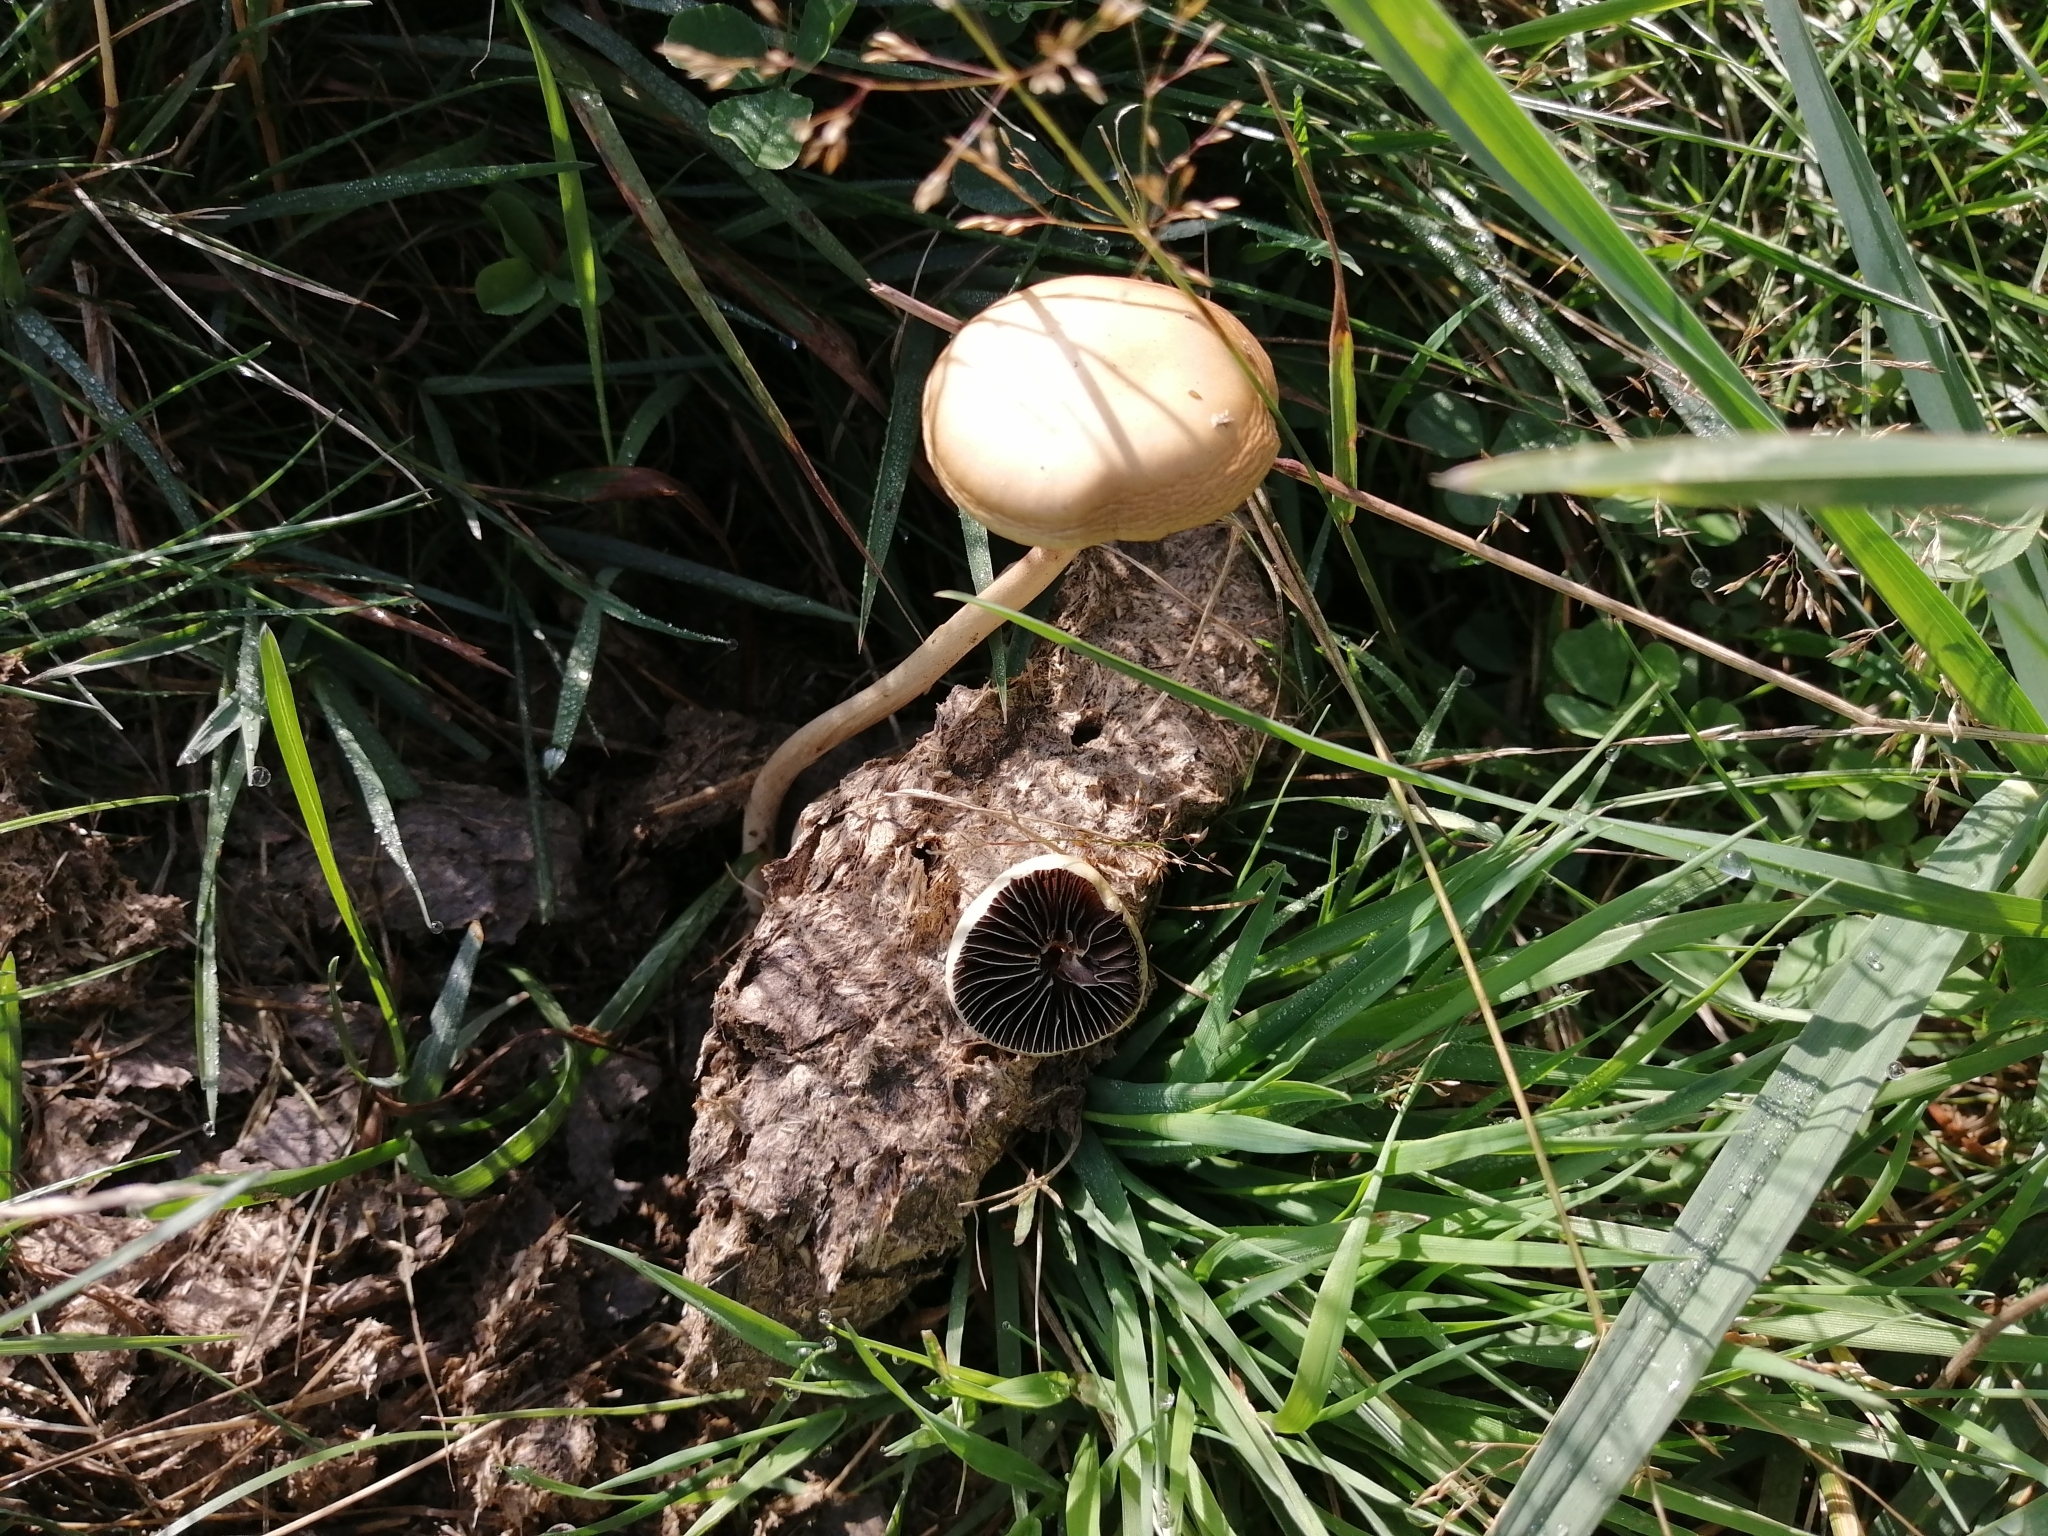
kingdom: Fungi
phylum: Basidiomycota
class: Agaricomycetes
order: Agaricales
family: Strophariaceae
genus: Protostropharia
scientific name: Protostropharia semiglobata
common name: Dung roundhead
